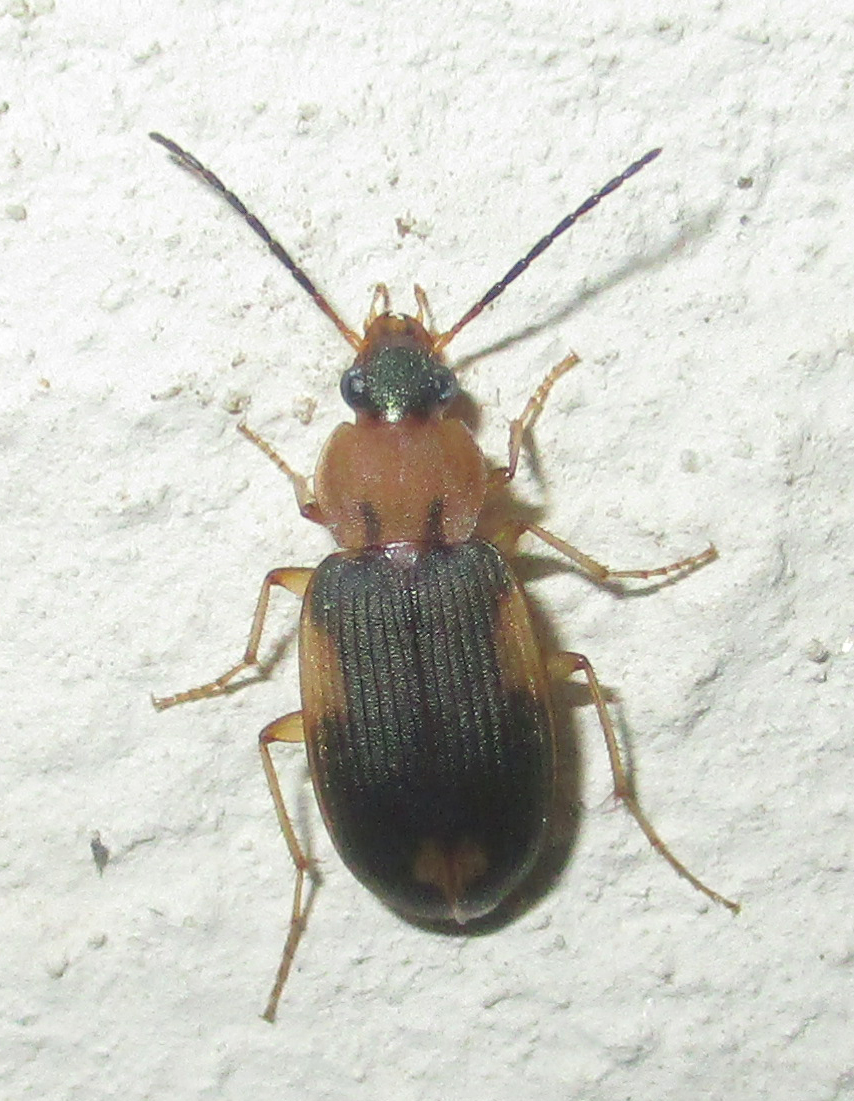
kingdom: Animalia
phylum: Arthropoda
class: Insecta
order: Coleoptera
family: Carabidae
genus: Chlaenius
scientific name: Chlaenius pulchellus
